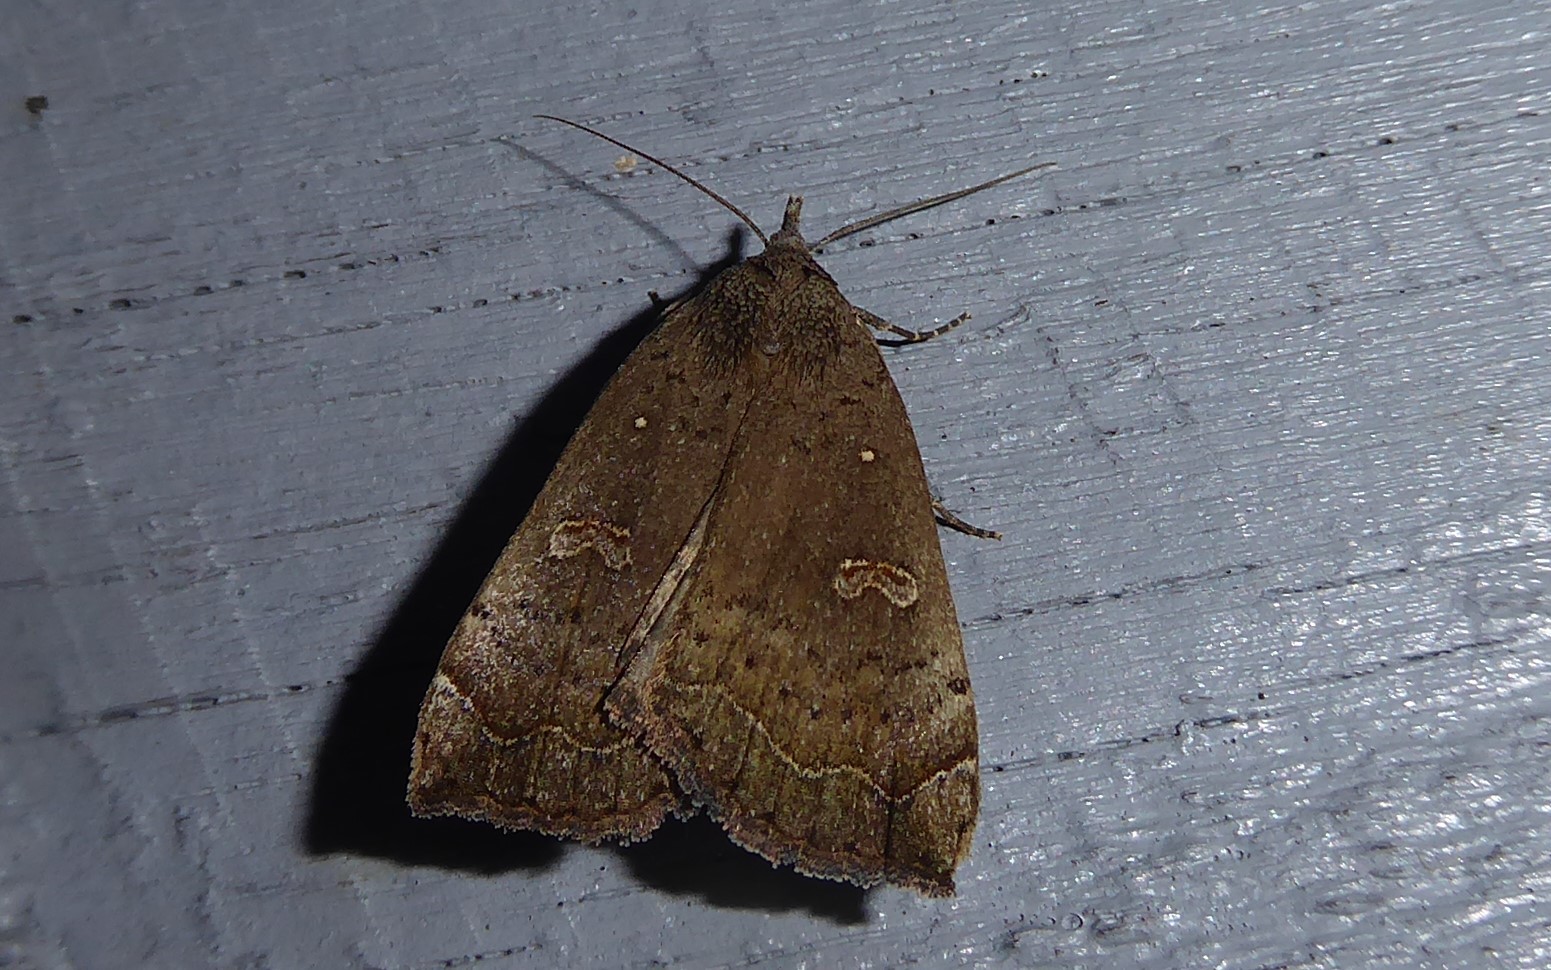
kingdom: Animalia
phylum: Arthropoda
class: Insecta
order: Lepidoptera
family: Erebidae
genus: Rhapsa
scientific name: Rhapsa scotosialis
